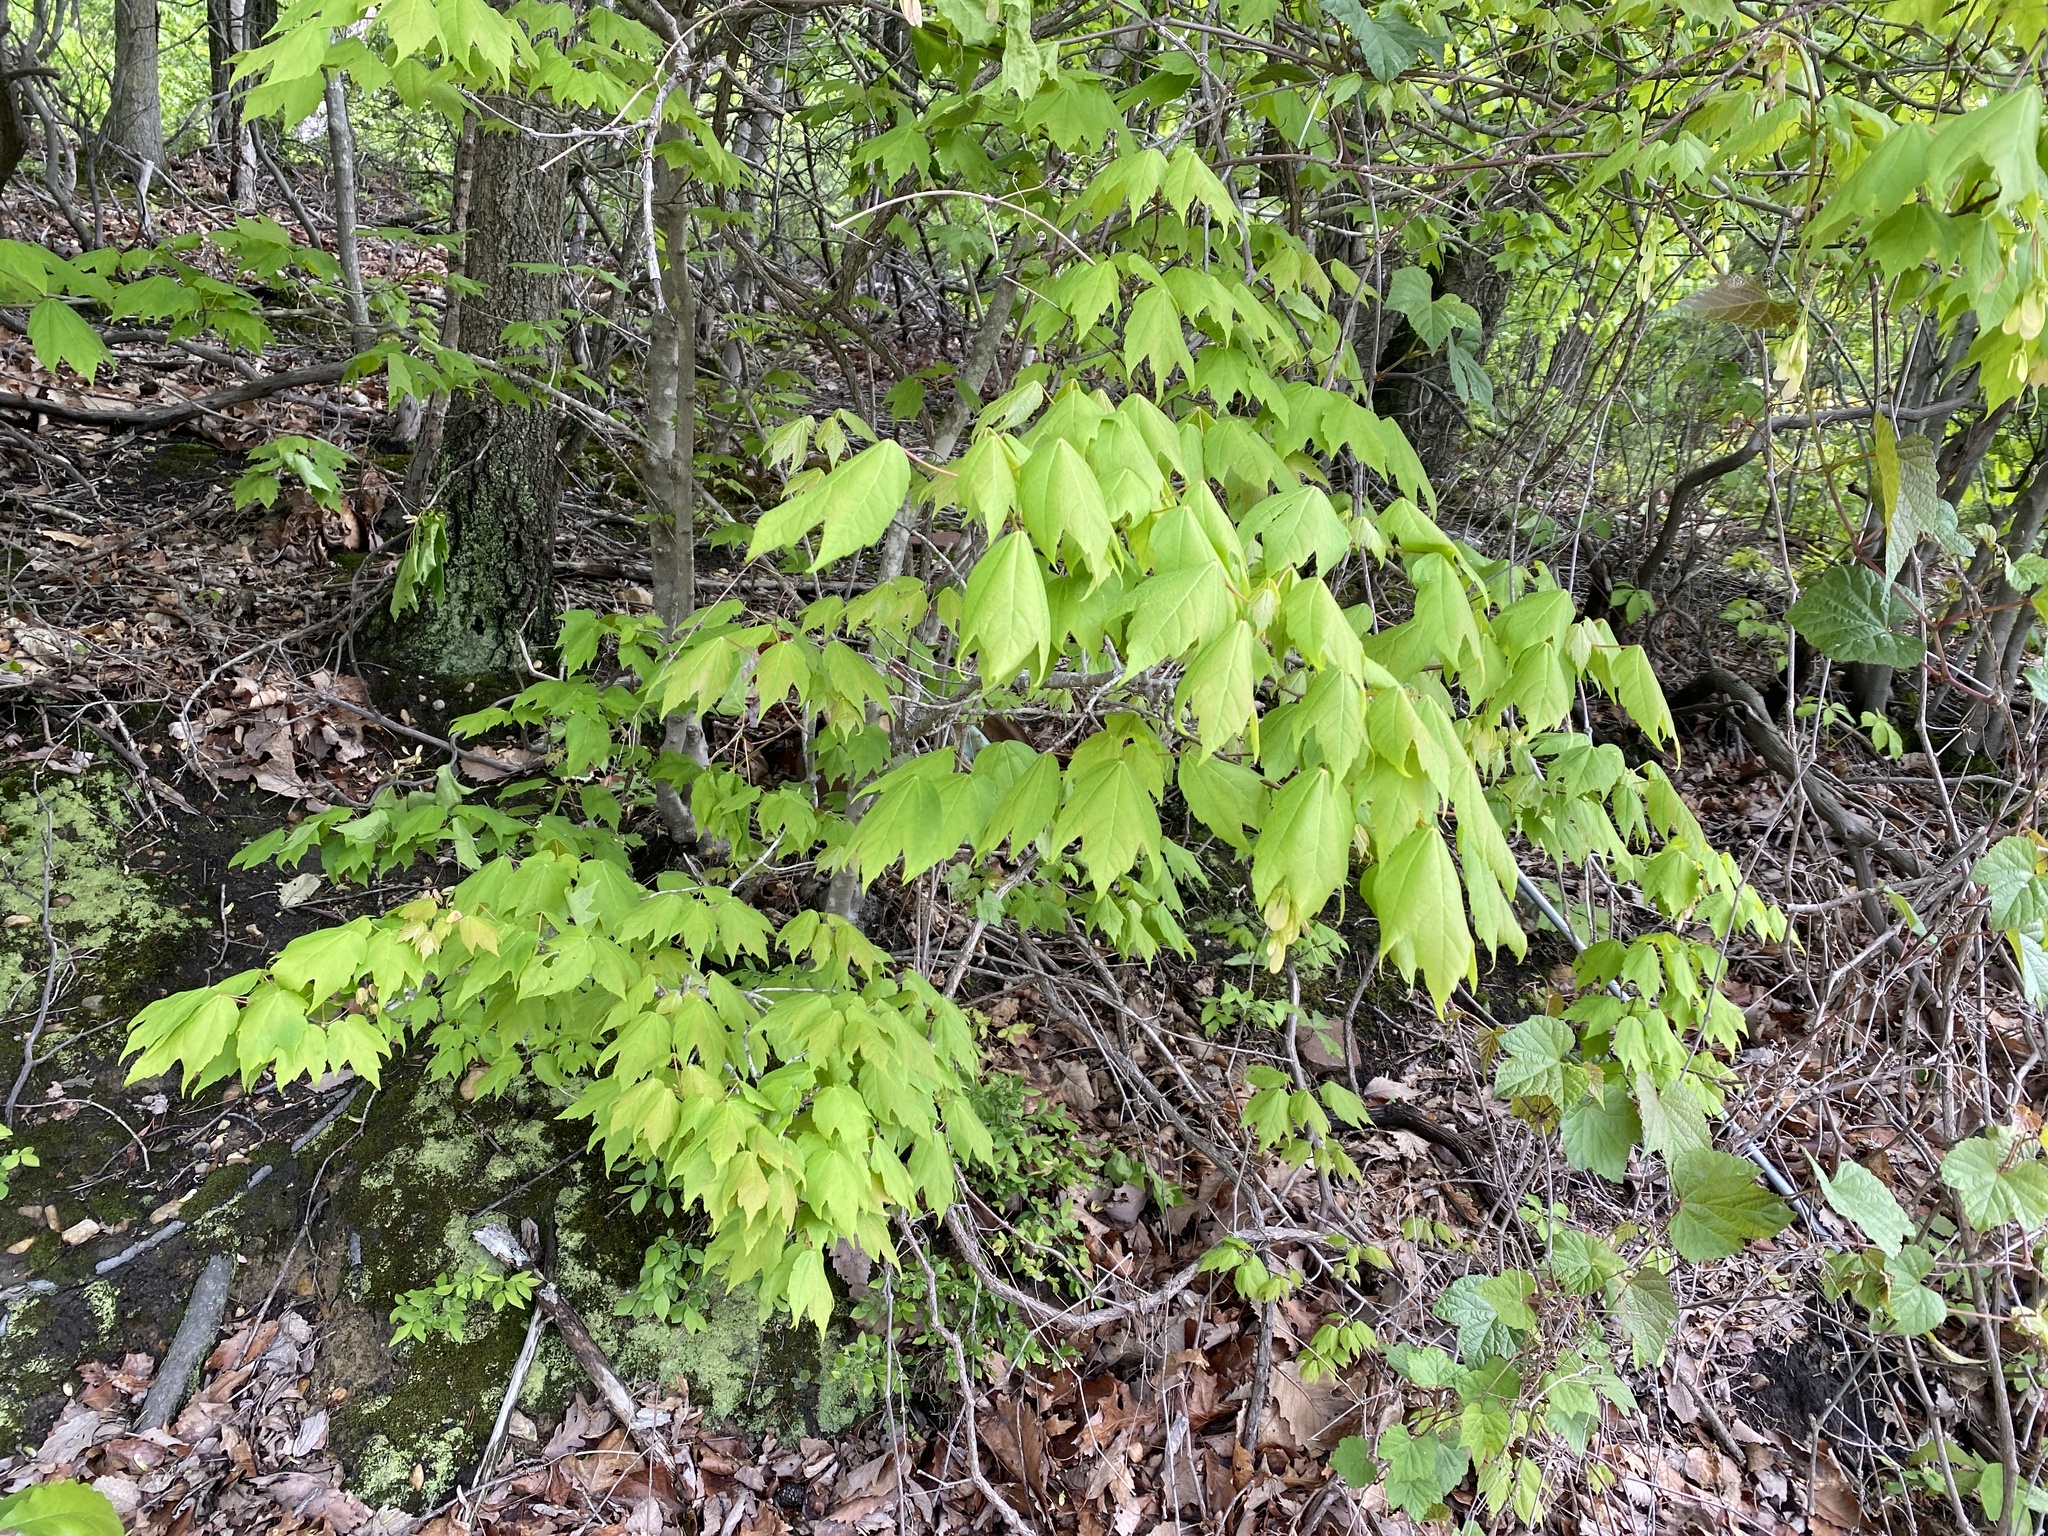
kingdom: Plantae
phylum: Tracheophyta
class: Magnoliopsida
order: Sapindales
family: Sapindaceae
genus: Acer
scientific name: Acer negundo
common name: Ashleaf maple
